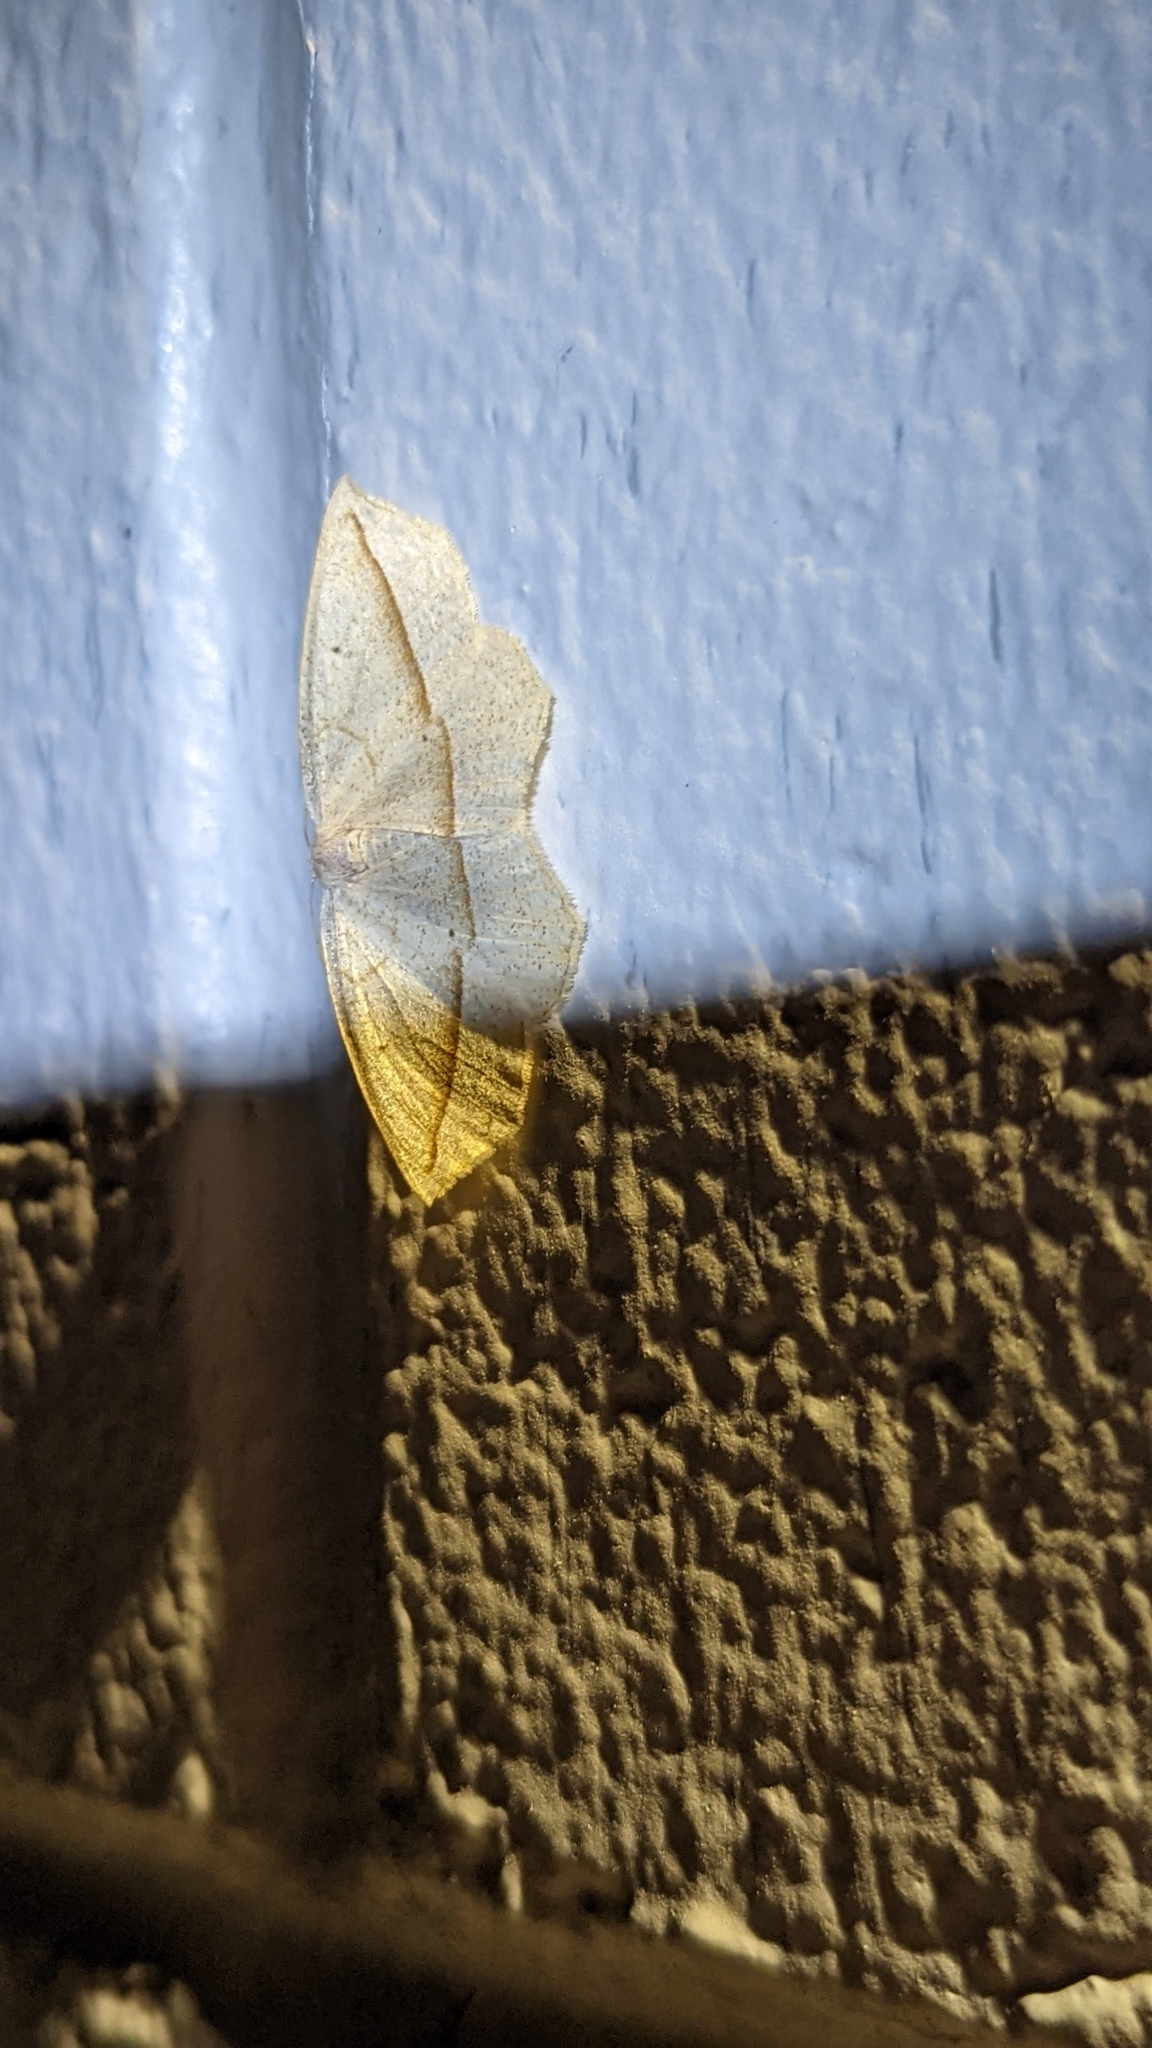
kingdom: Animalia
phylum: Arthropoda
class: Insecta
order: Lepidoptera
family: Geometridae
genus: Eusarca
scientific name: Eusarca confusaria
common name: Confused eusarca
